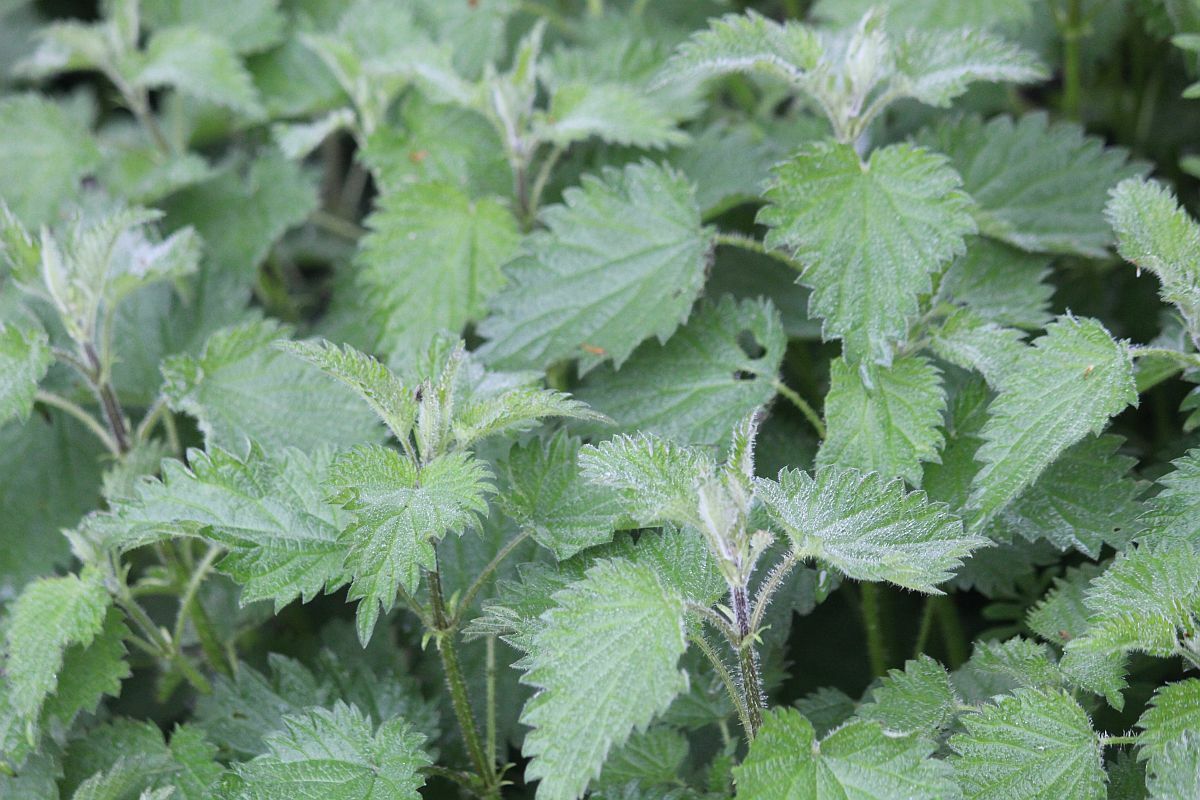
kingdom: Plantae
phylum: Tracheophyta
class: Magnoliopsida
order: Rosales
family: Urticaceae
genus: Urtica
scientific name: Urtica dioica
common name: Common nettle
